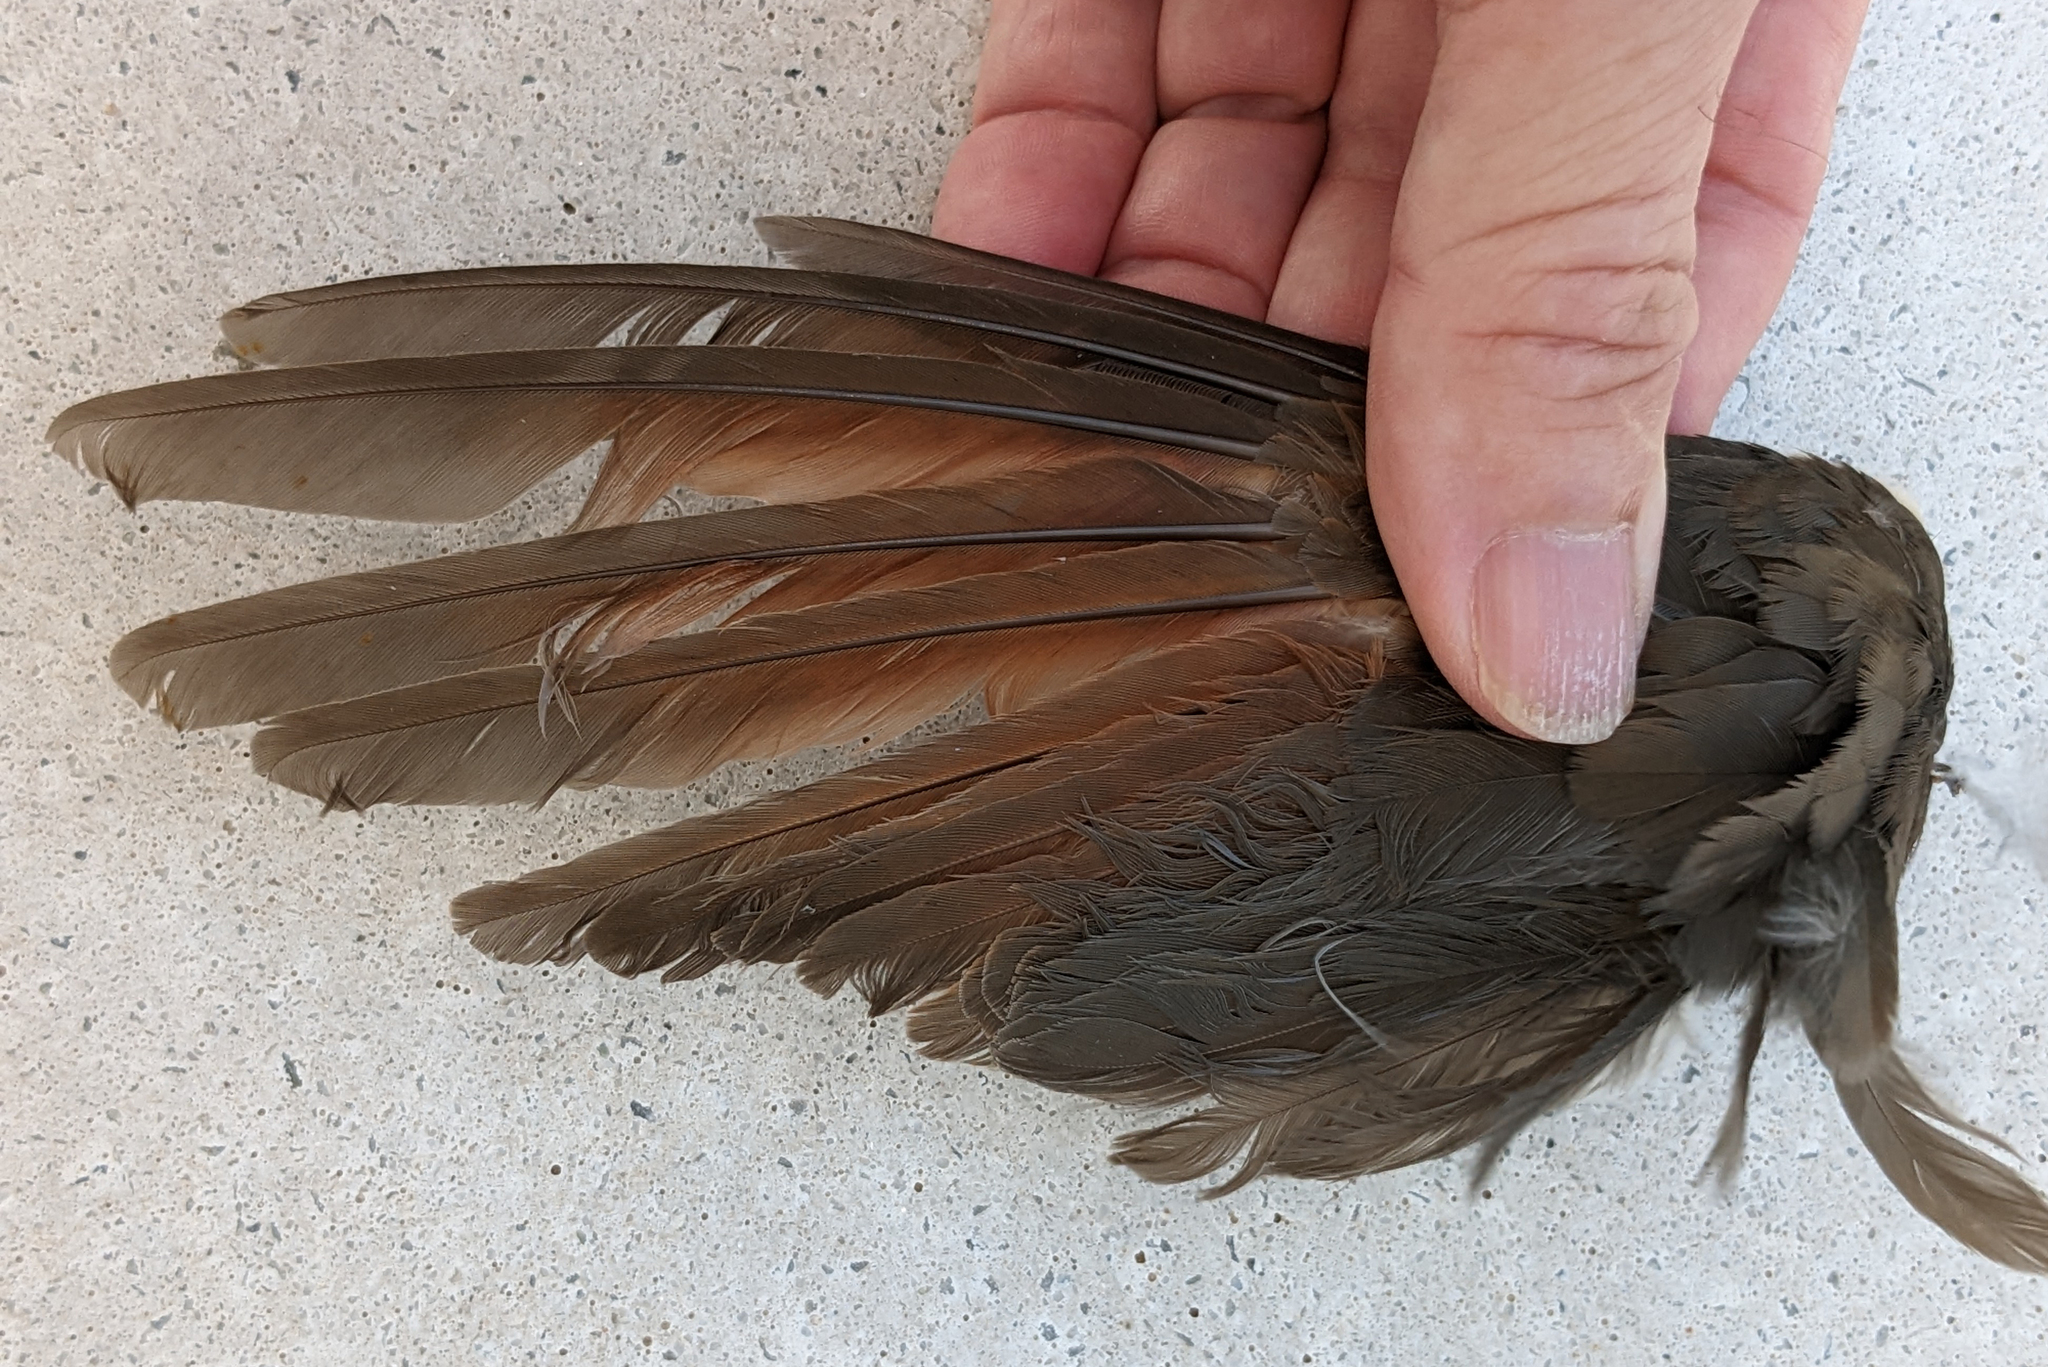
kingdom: Animalia
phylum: Chordata
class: Aves
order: Cuculiformes
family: Cuculidae
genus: Coccyzus
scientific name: Coccyzus americanus
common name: Yellow-billed cuckoo
